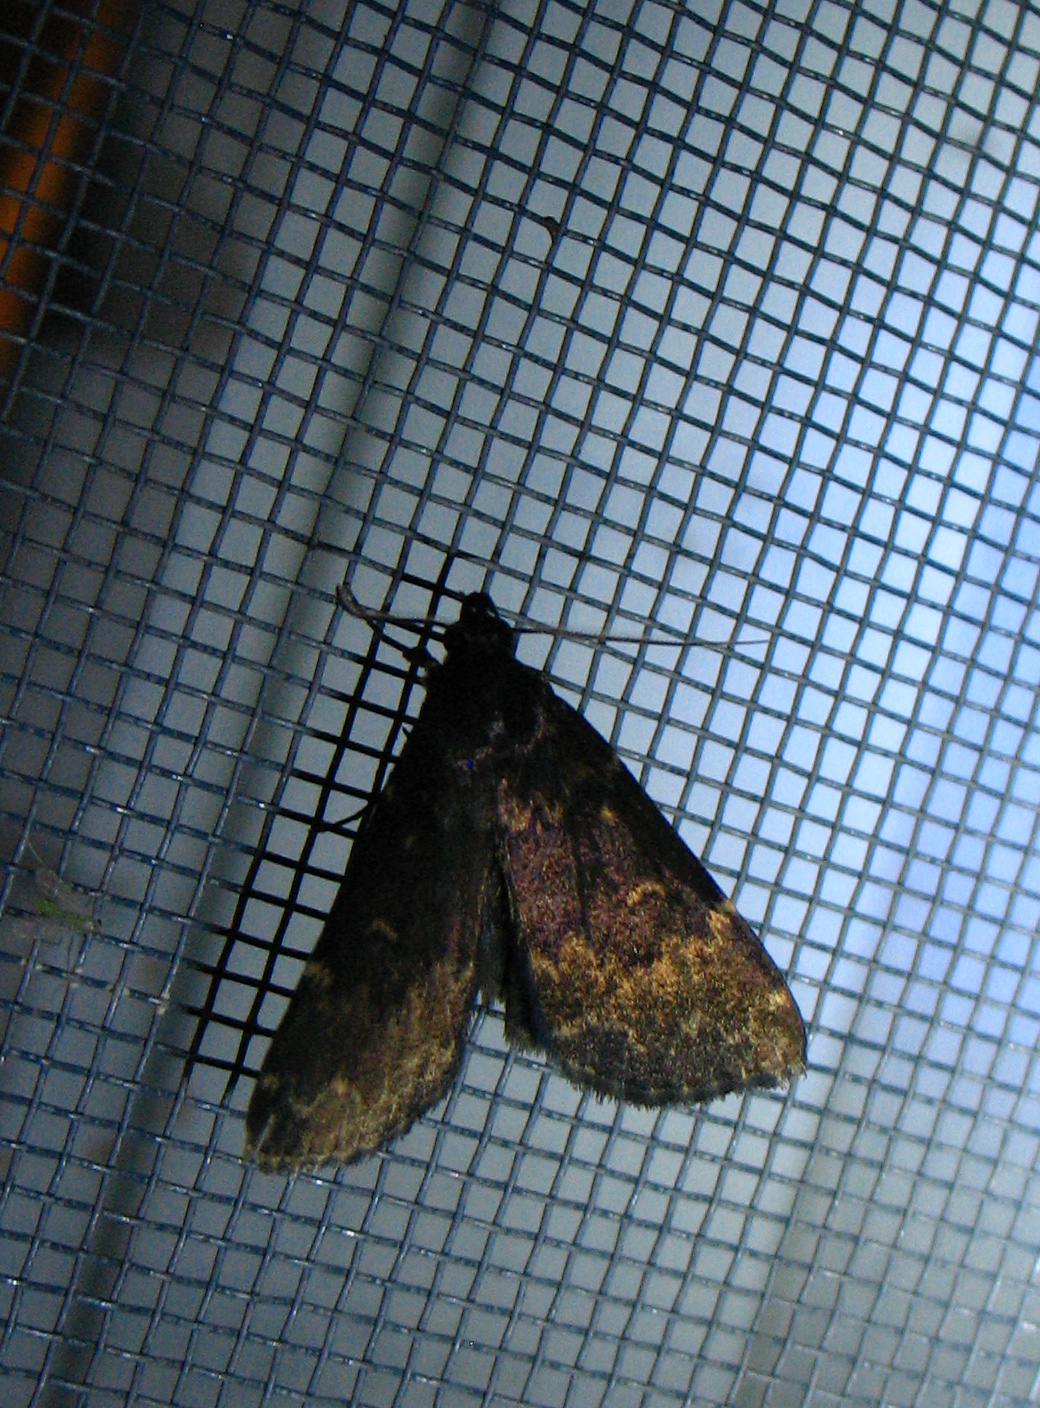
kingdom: Animalia
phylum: Arthropoda
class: Insecta
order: Lepidoptera
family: Erebidae
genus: Idia
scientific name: Idia lubricalis
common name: Twin-striped tabby
